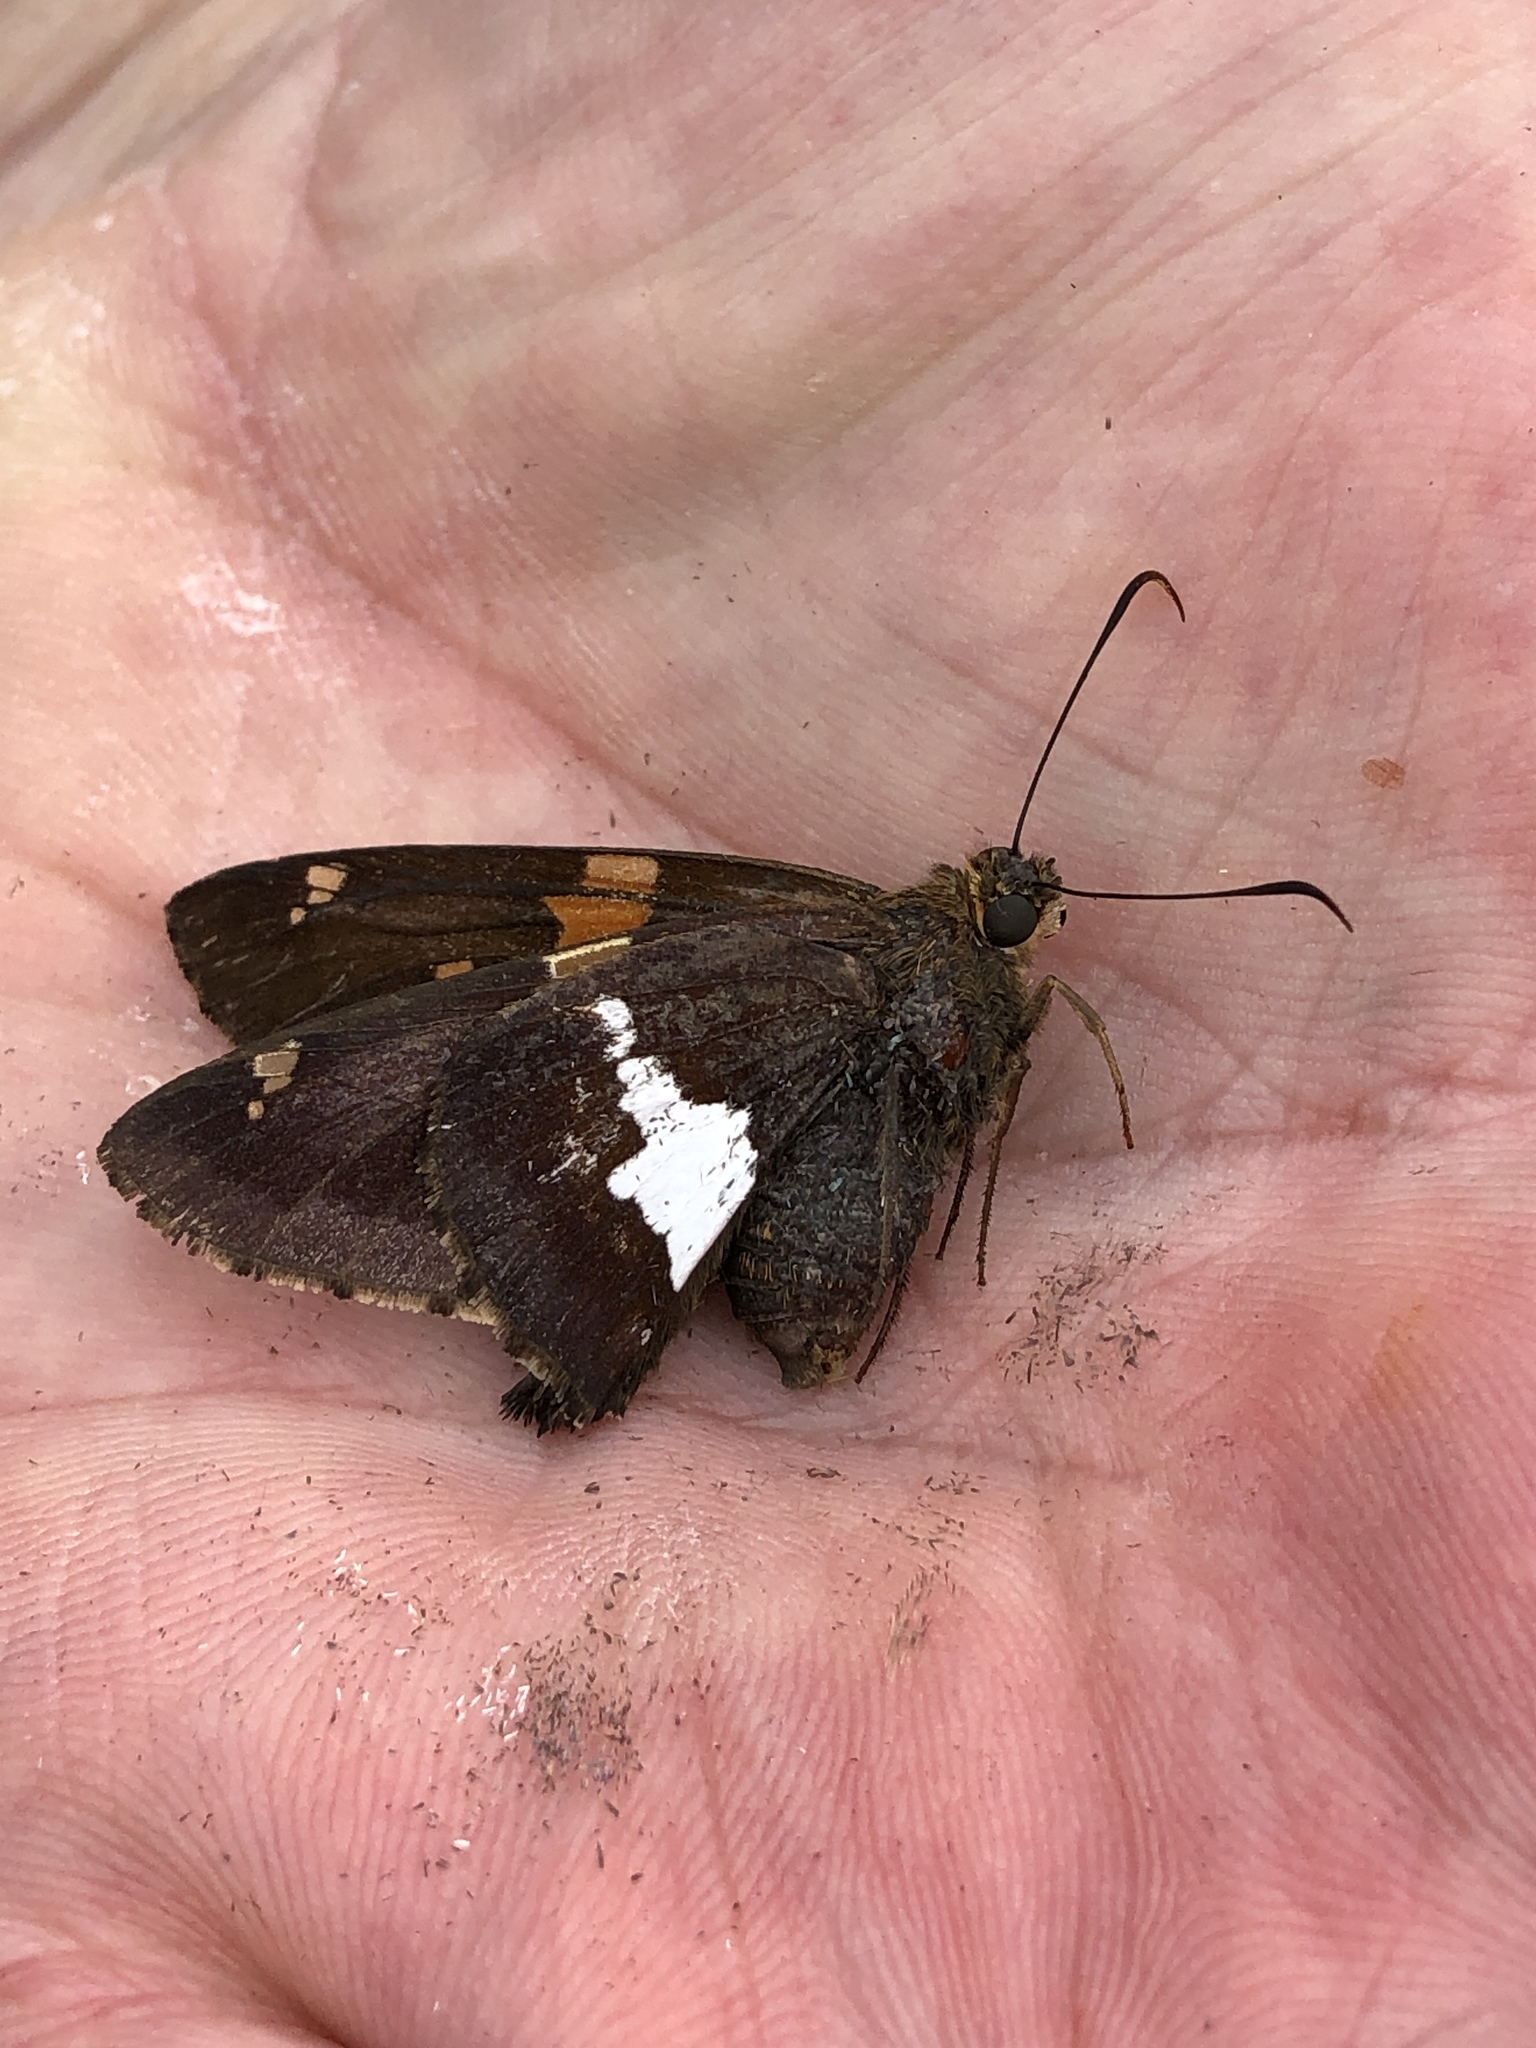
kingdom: Animalia
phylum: Arthropoda
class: Insecta
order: Lepidoptera
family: Hesperiidae
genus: Epargyreus
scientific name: Epargyreus clarus
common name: Silver-spotted skipper
